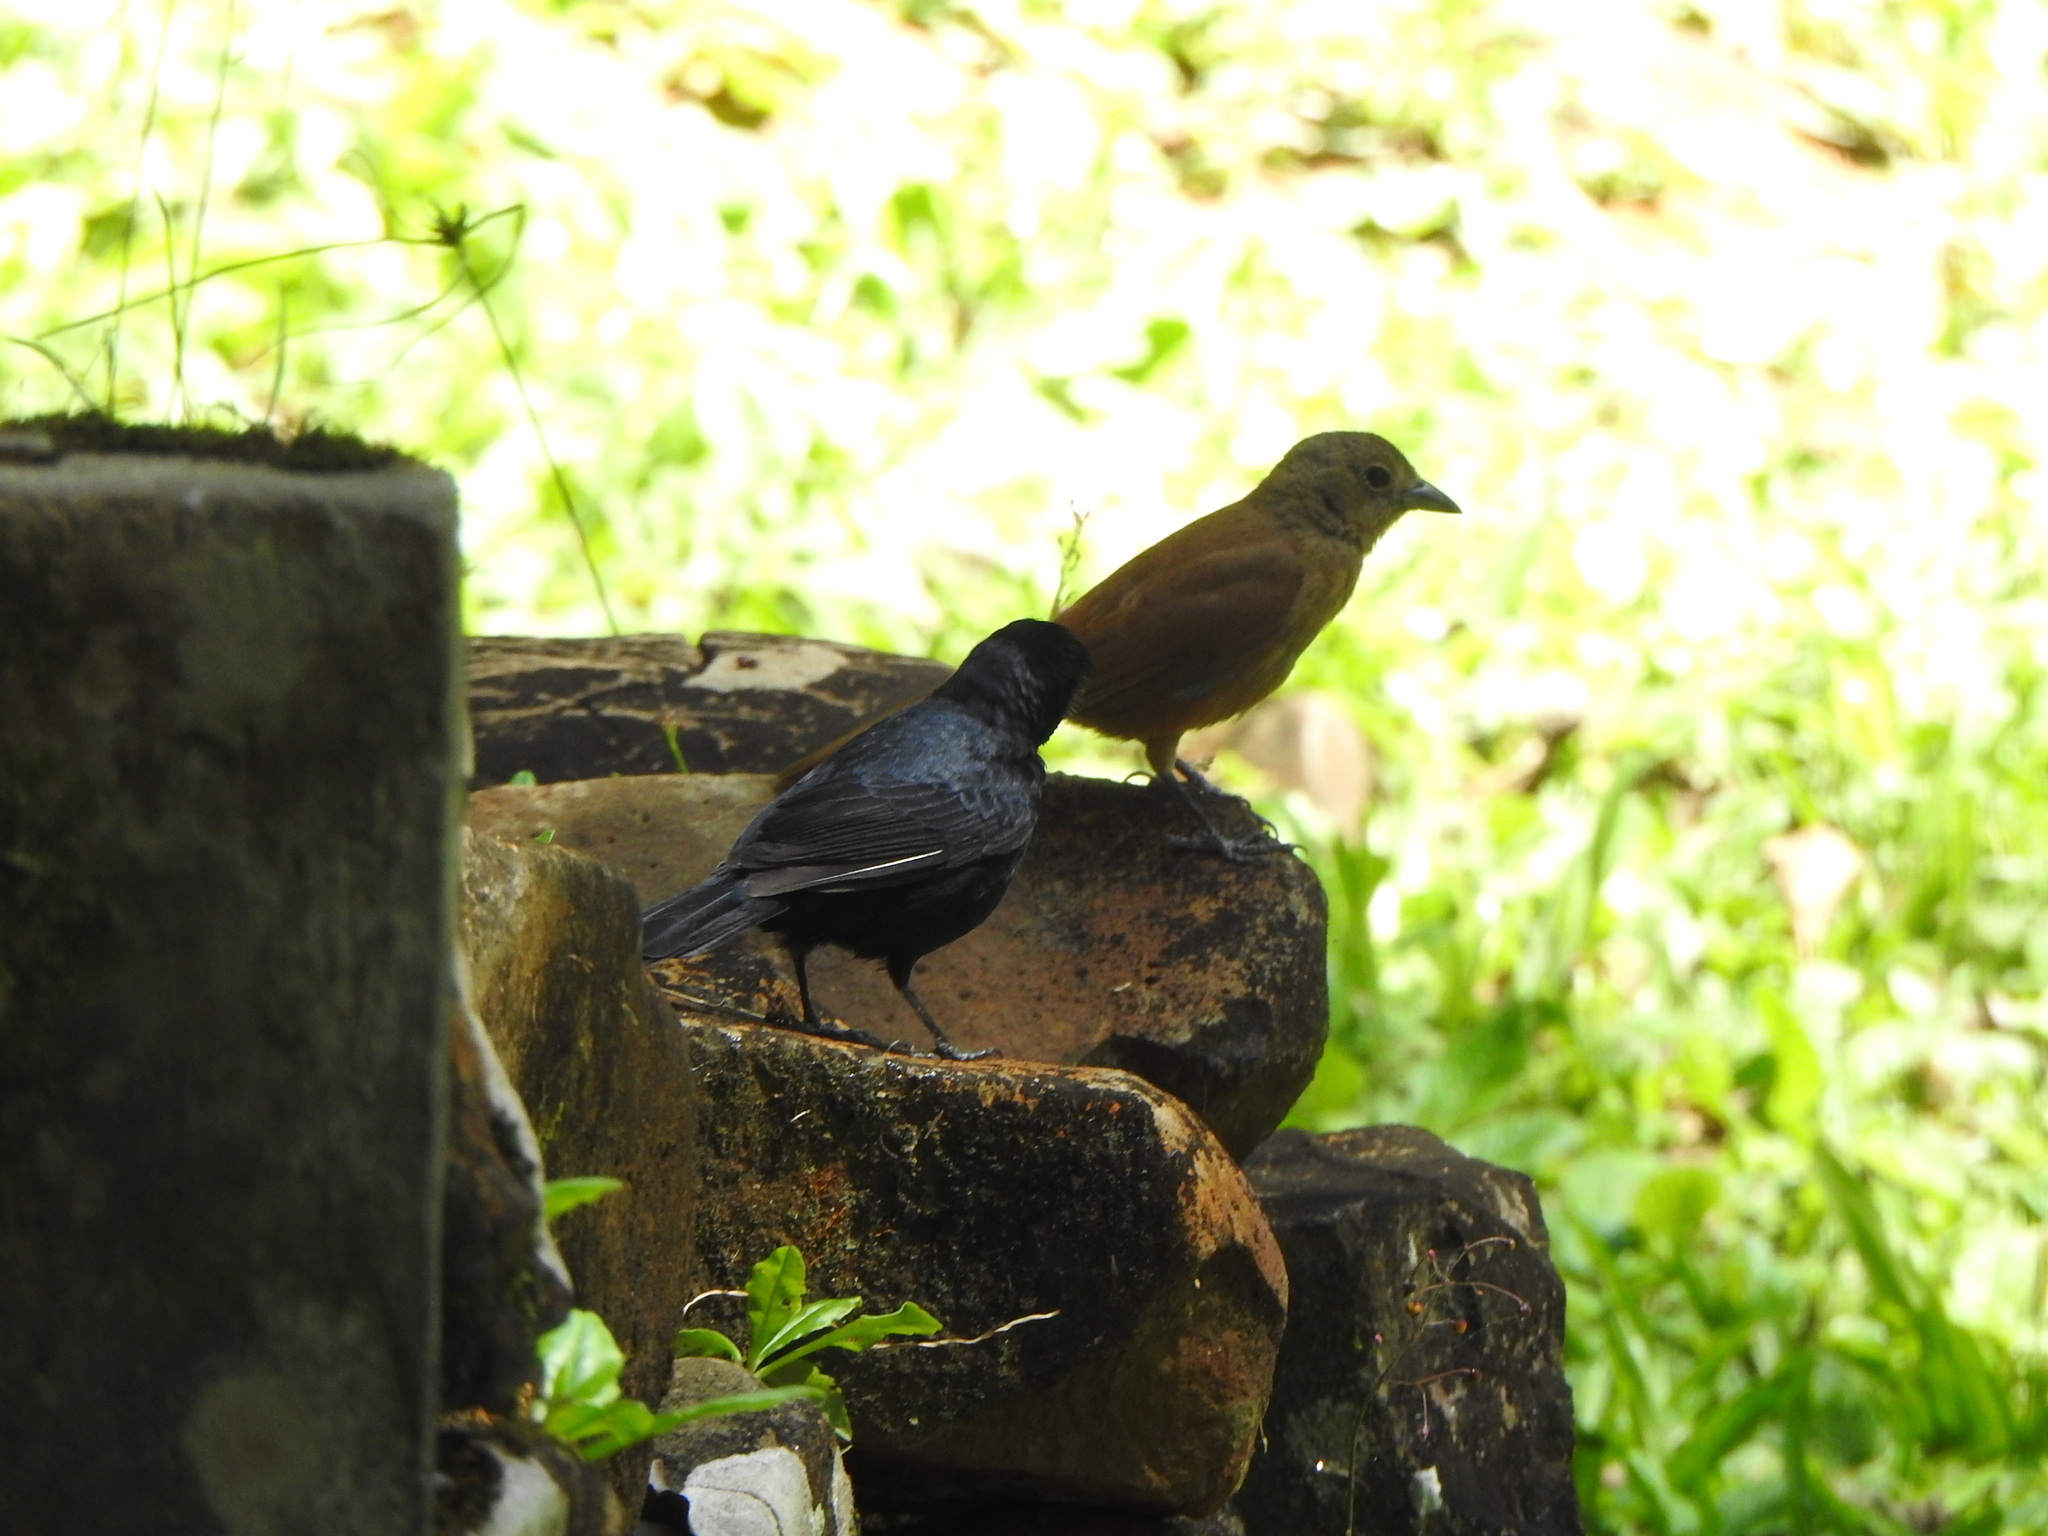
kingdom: Animalia
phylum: Chordata
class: Aves
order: Passeriformes
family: Thraupidae
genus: Tachyphonus
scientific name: Tachyphonus coronatus
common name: Ruby-crowned tanager
